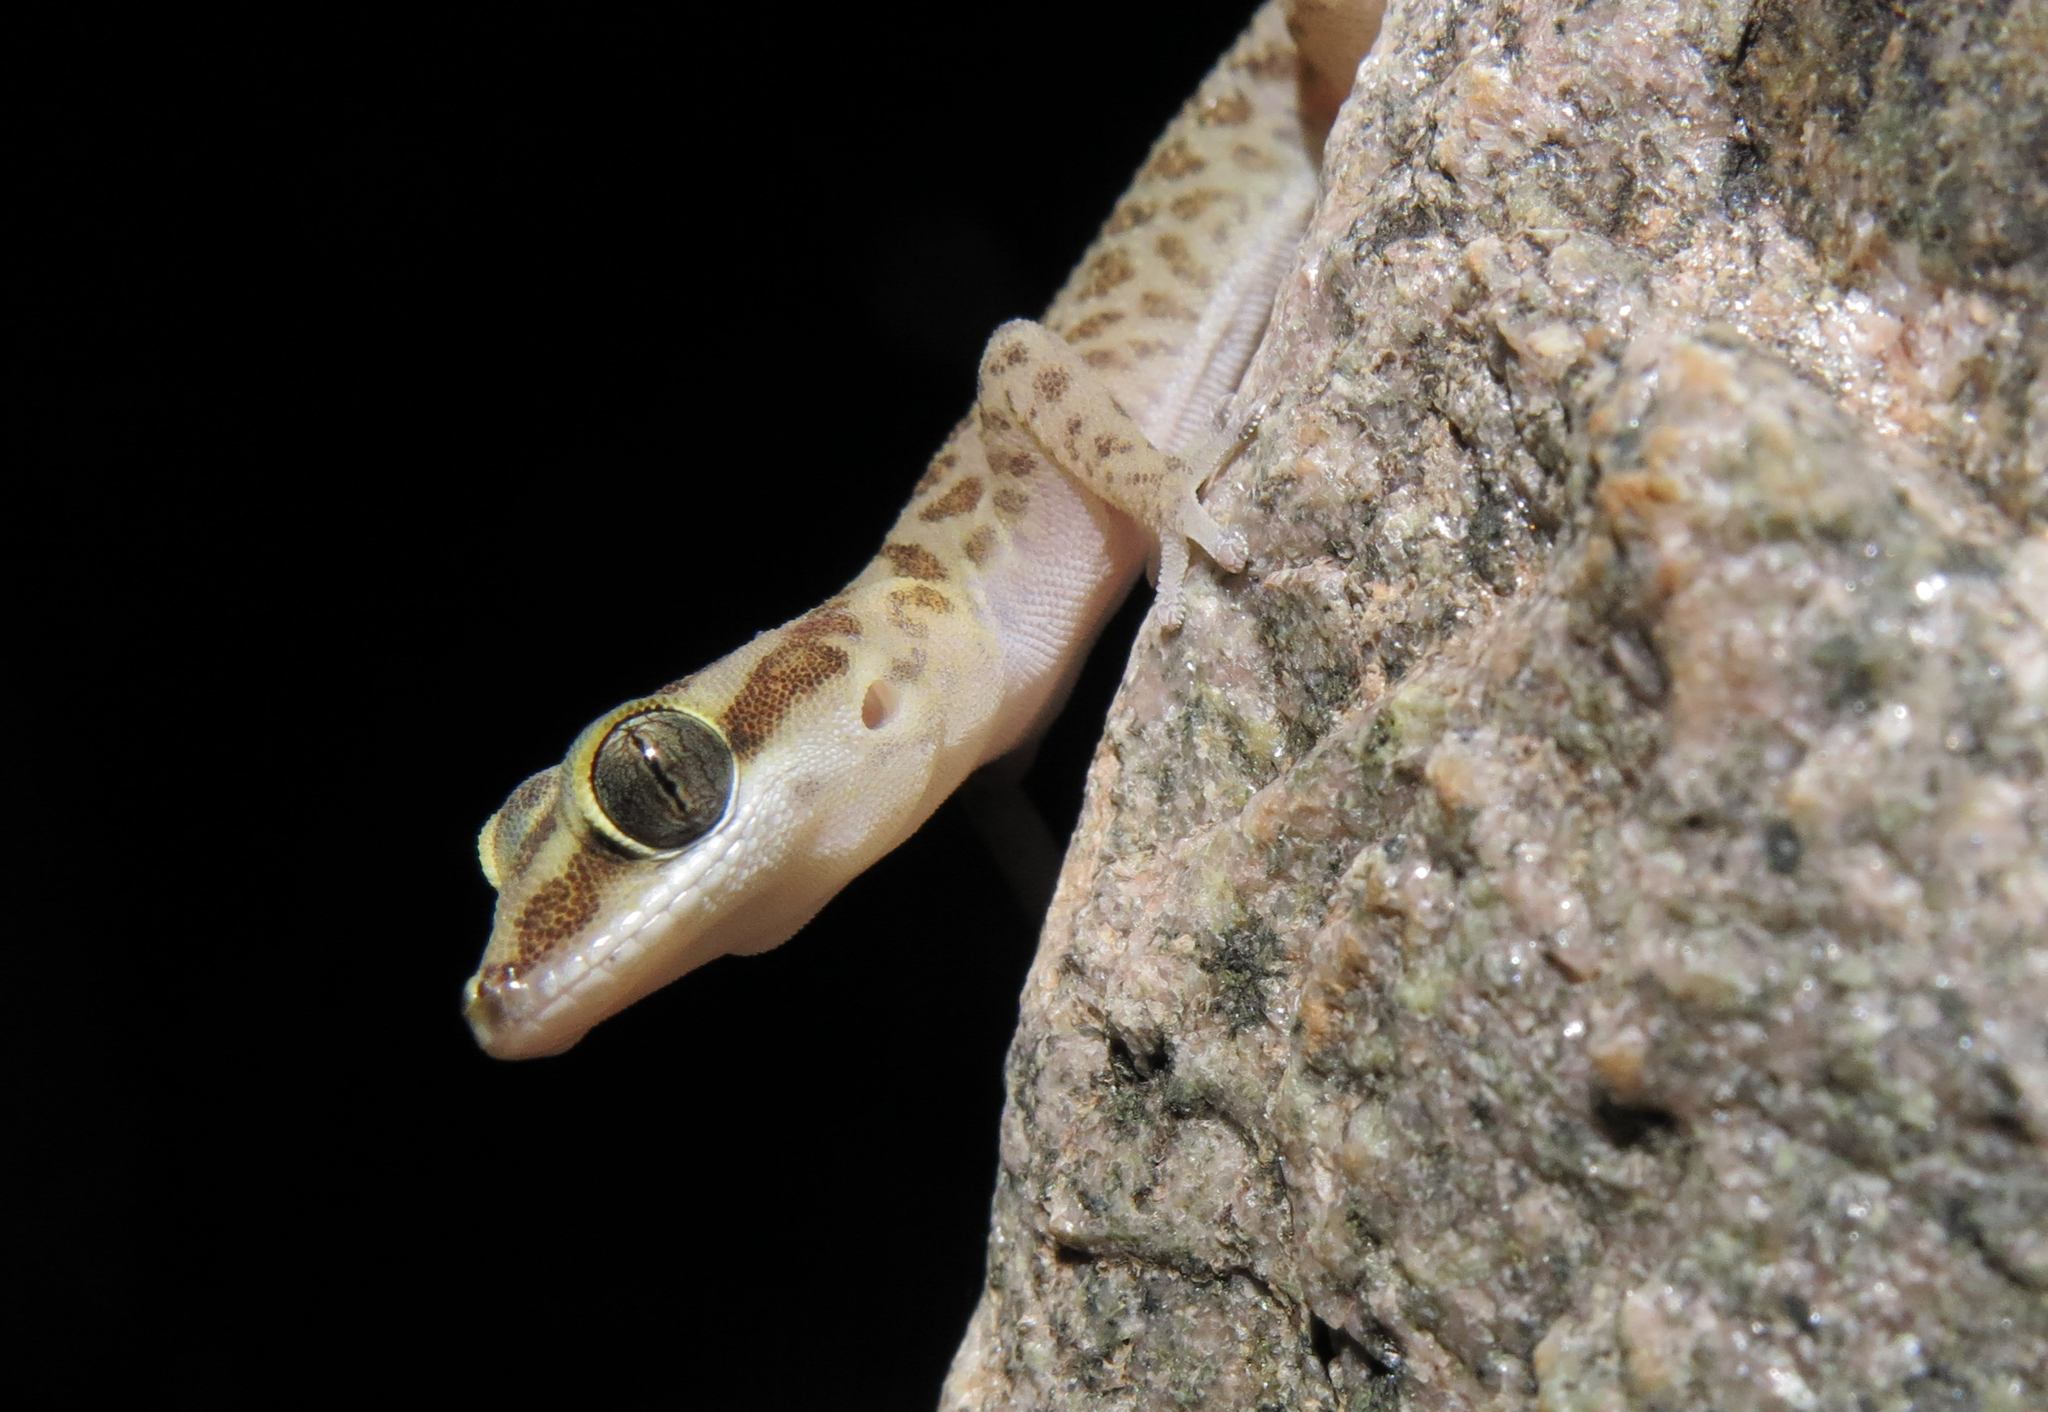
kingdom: Animalia
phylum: Chordata
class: Squamata
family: Gekkonidae
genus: Pachydactylus
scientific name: Pachydactylus carinatus
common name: Richtersveld gecko
